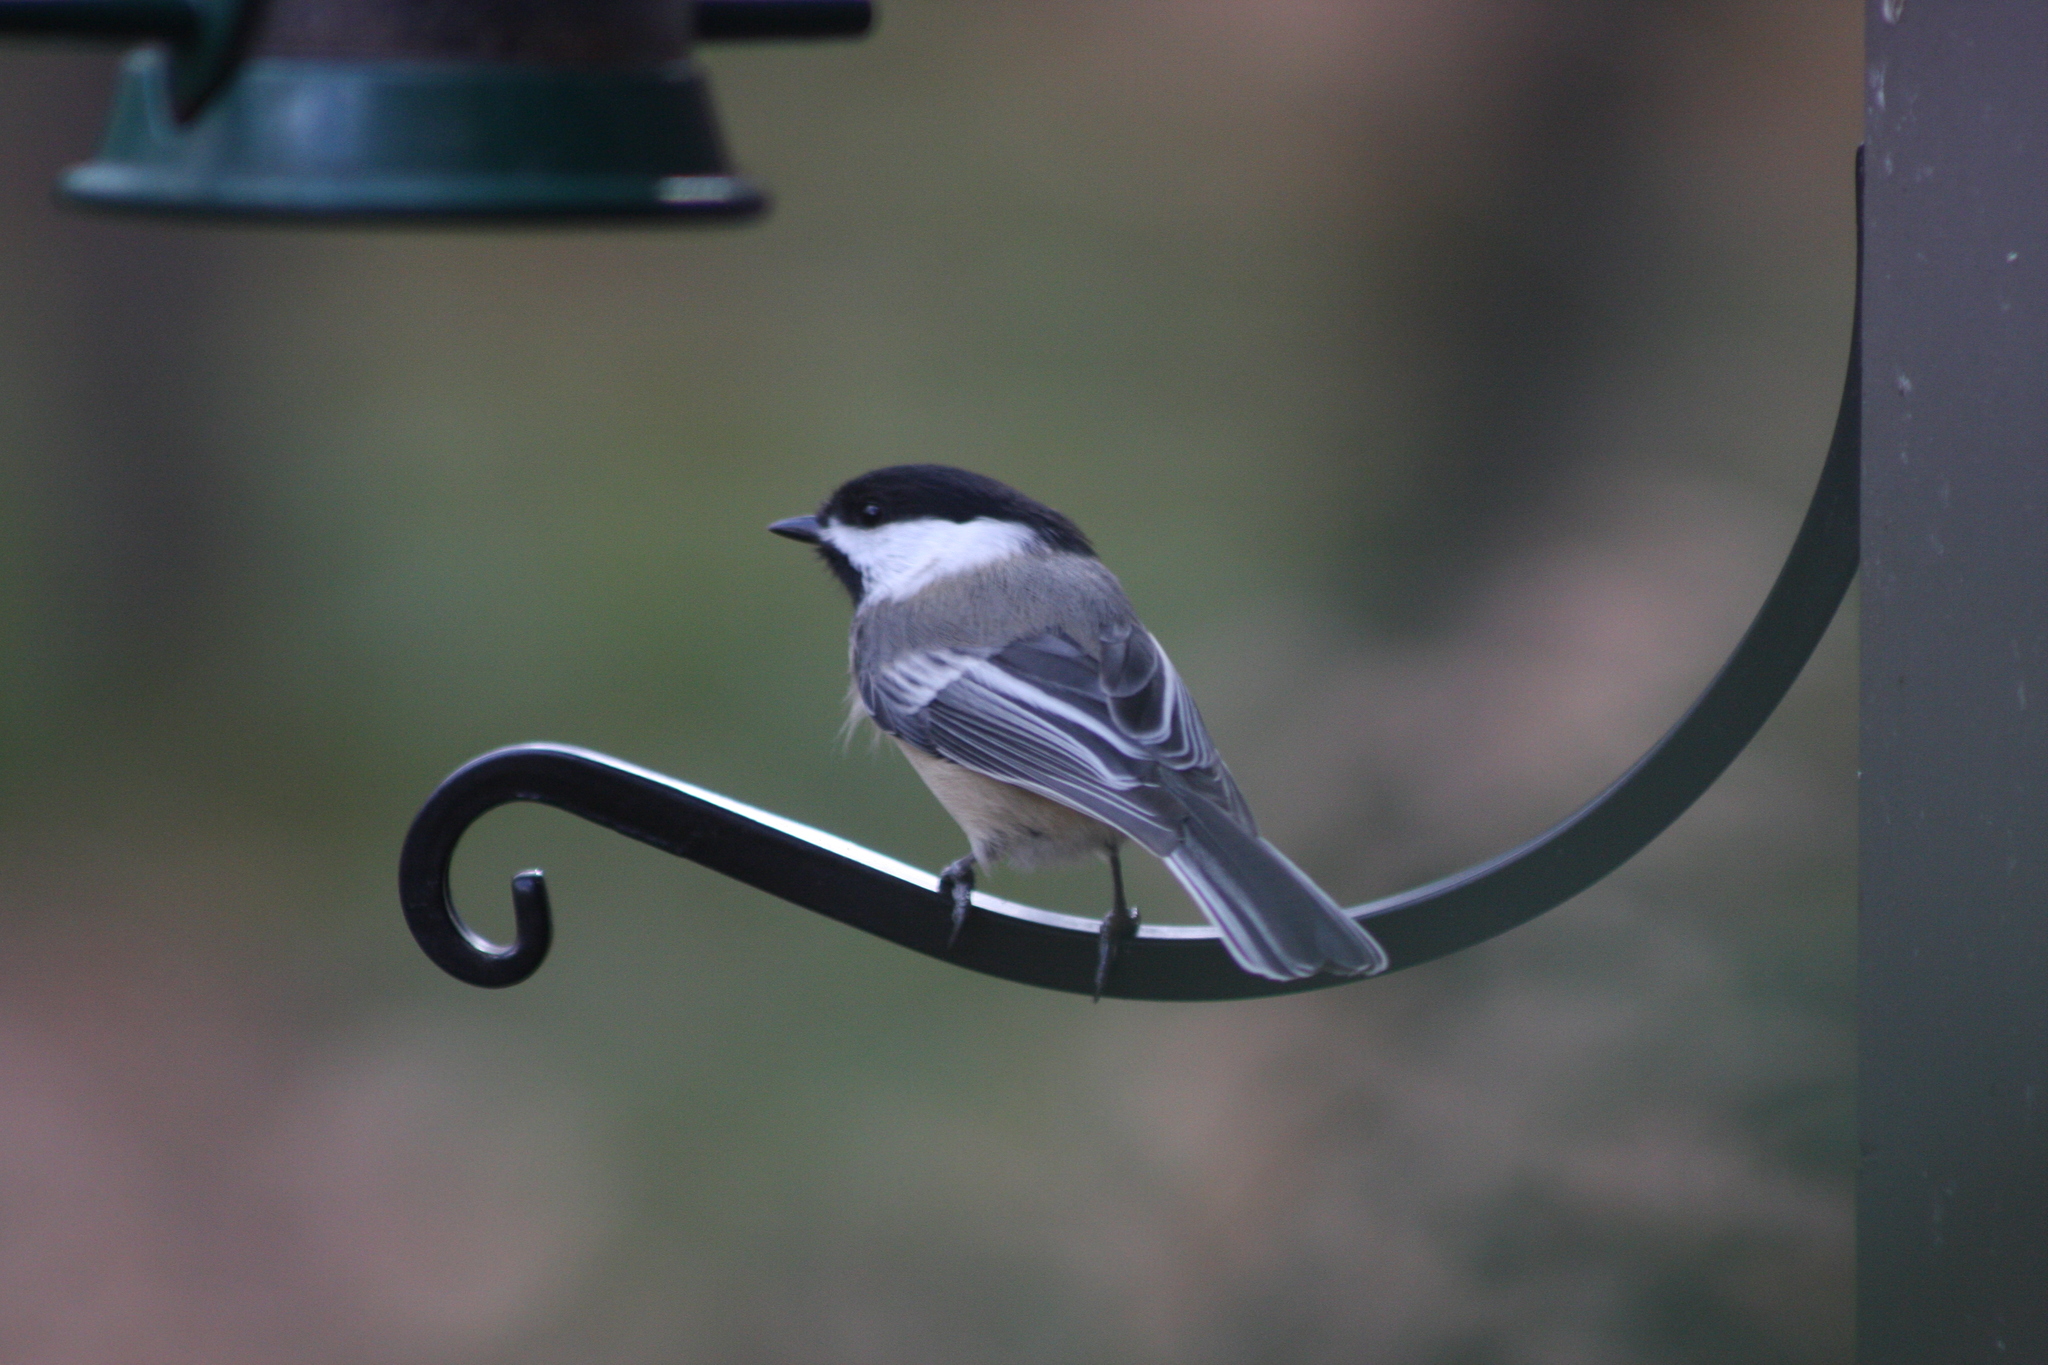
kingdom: Animalia
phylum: Chordata
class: Aves
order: Passeriformes
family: Paridae
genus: Poecile
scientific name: Poecile atricapillus
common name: Black-capped chickadee
